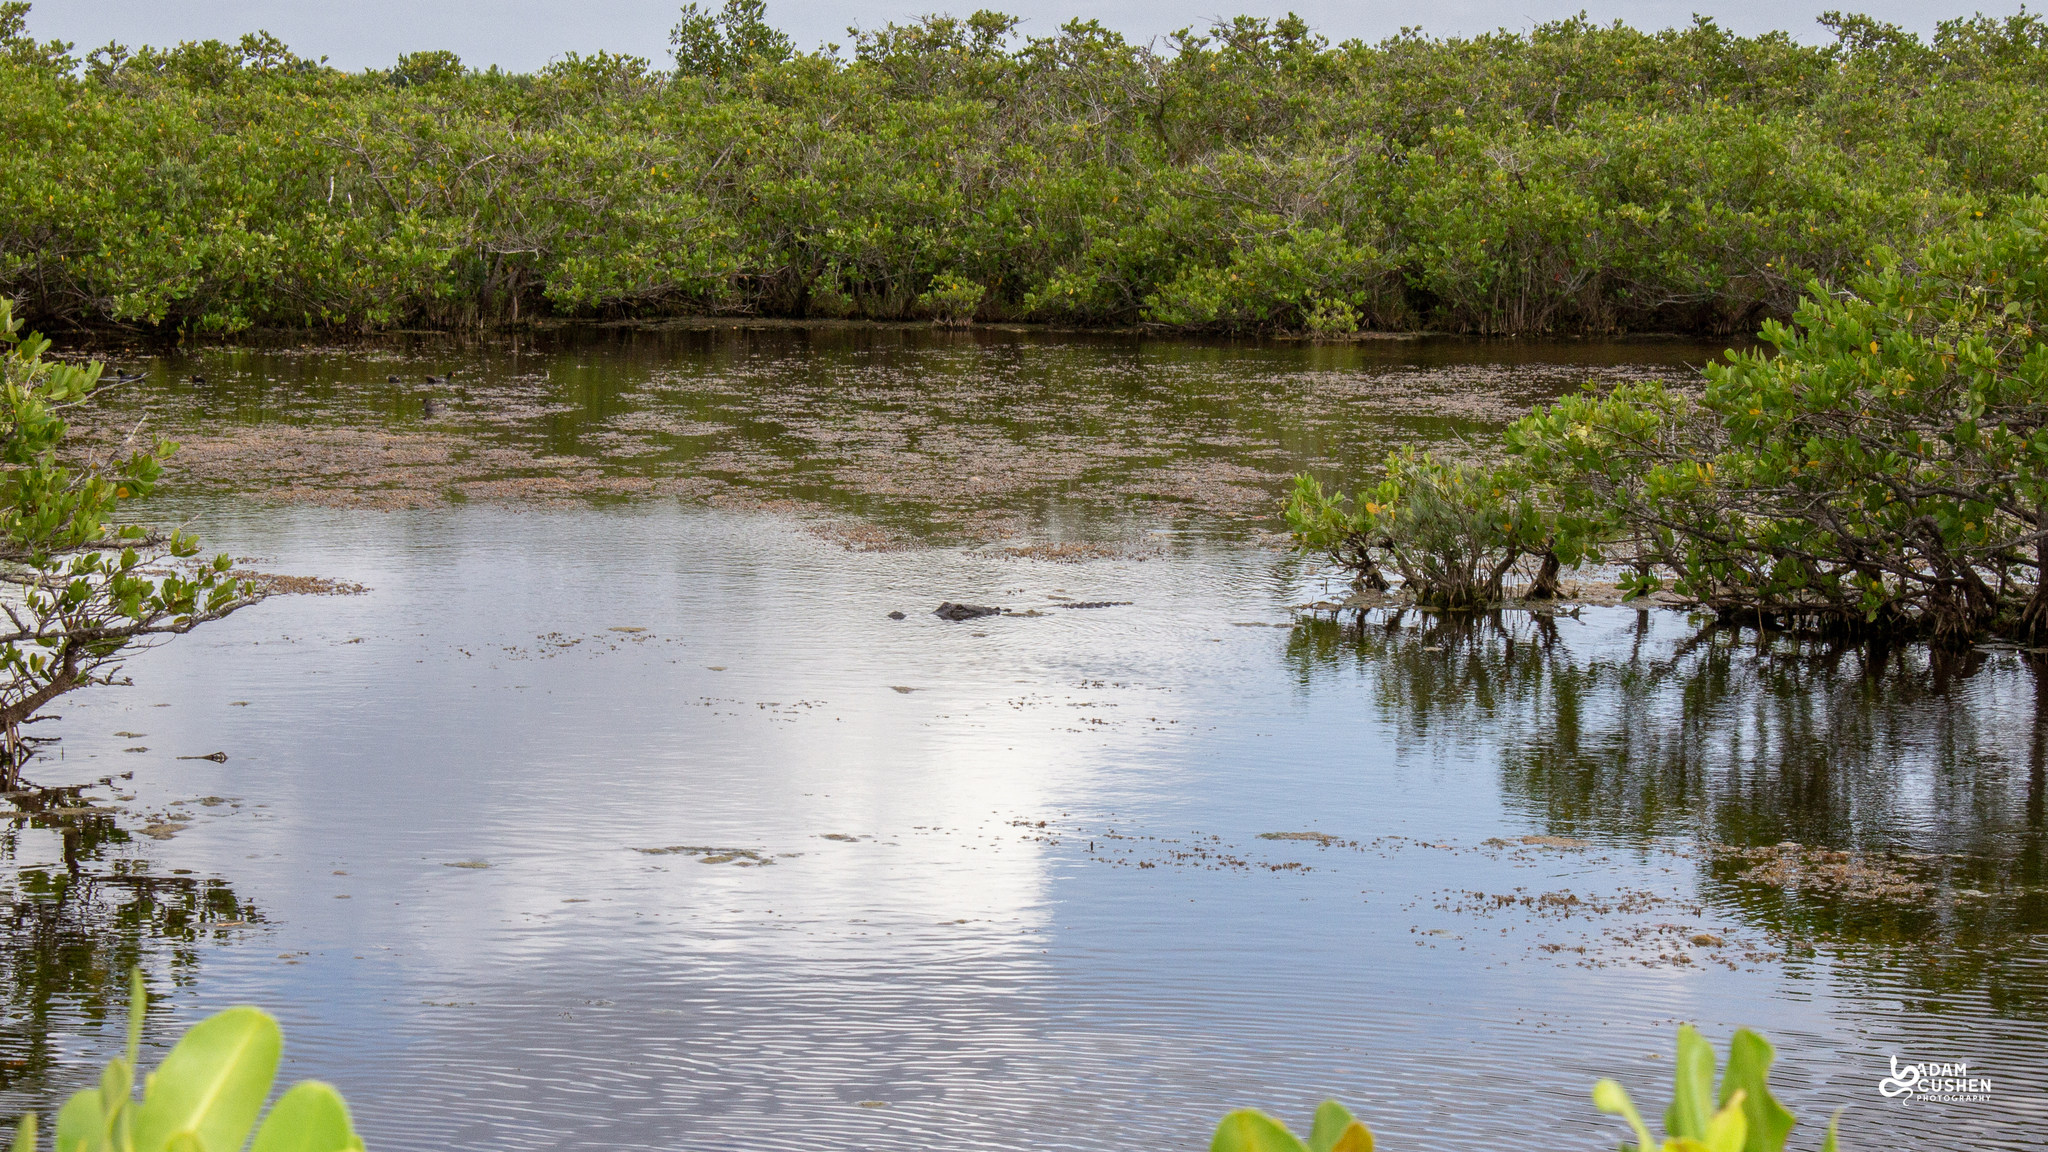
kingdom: Animalia
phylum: Chordata
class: Crocodylia
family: Alligatoridae
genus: Alligator
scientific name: Alligator mississippiensis
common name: American alligator
